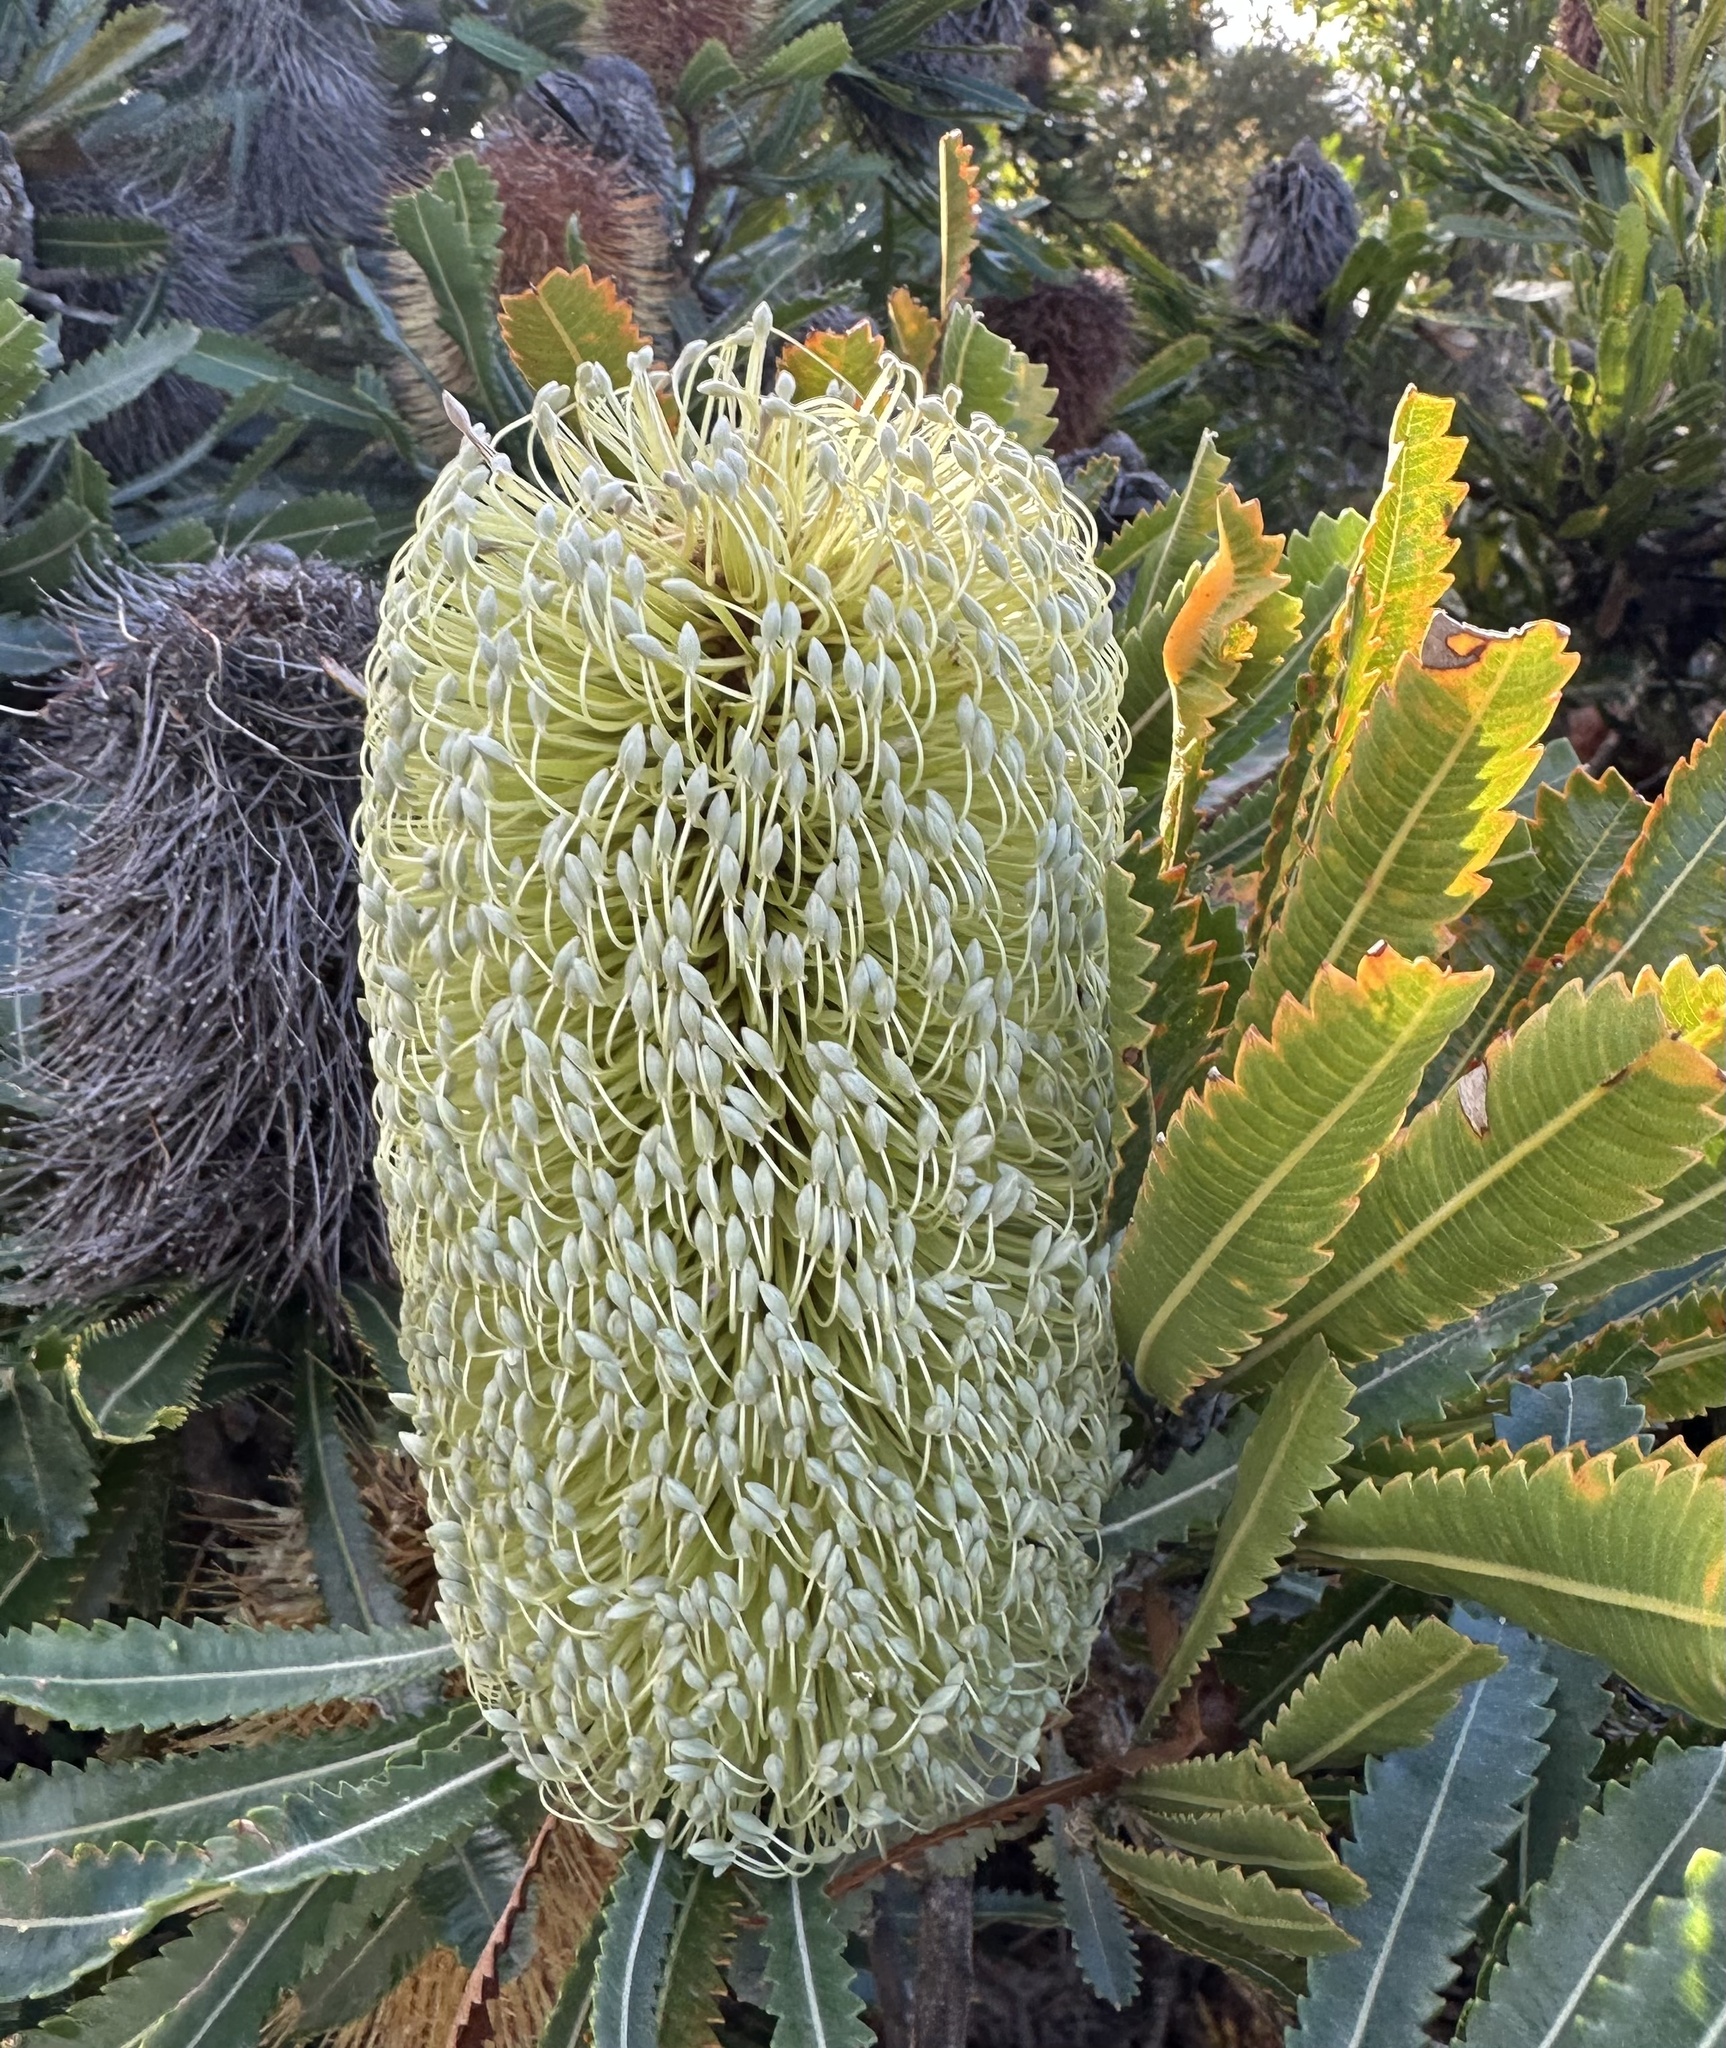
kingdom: Plantae
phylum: Tracheophyta
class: Magnoliopsida
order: Proteales
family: Proteaceae
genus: Banksia
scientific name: Banksia aemula
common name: Wallum banksia
